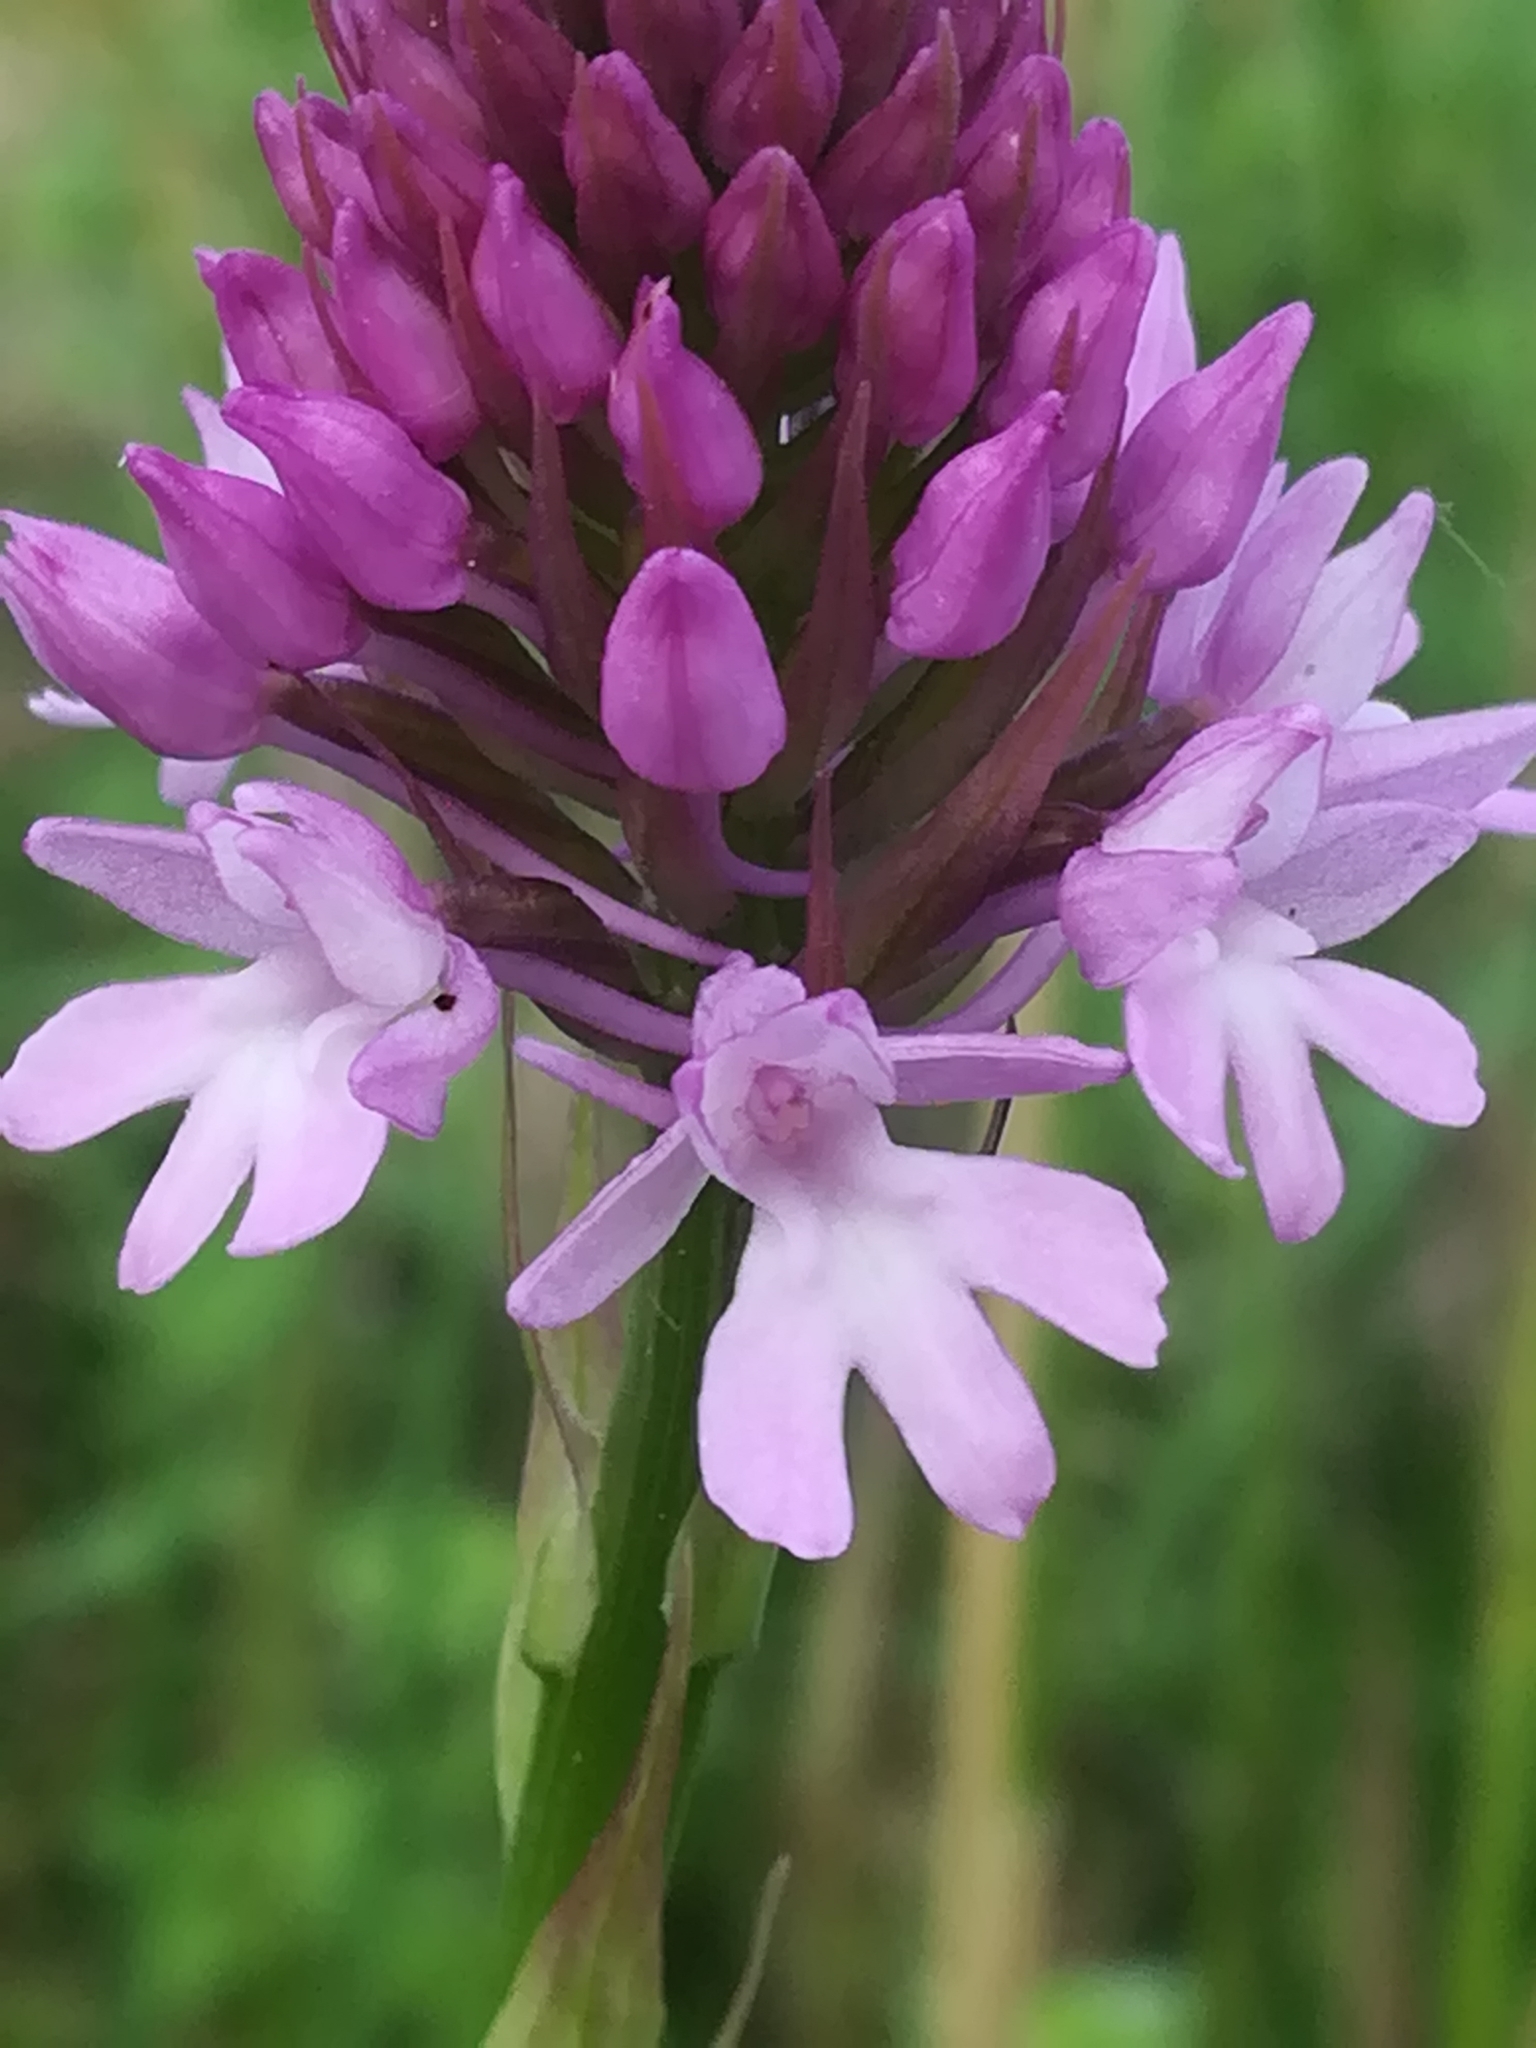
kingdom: Plantae
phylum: Tracheophyta
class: Liliopsida
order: Asparagales
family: Orchidaceae
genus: Anacamptis
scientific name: Anacamptis pyramidalis
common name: Pyramidal orchid
